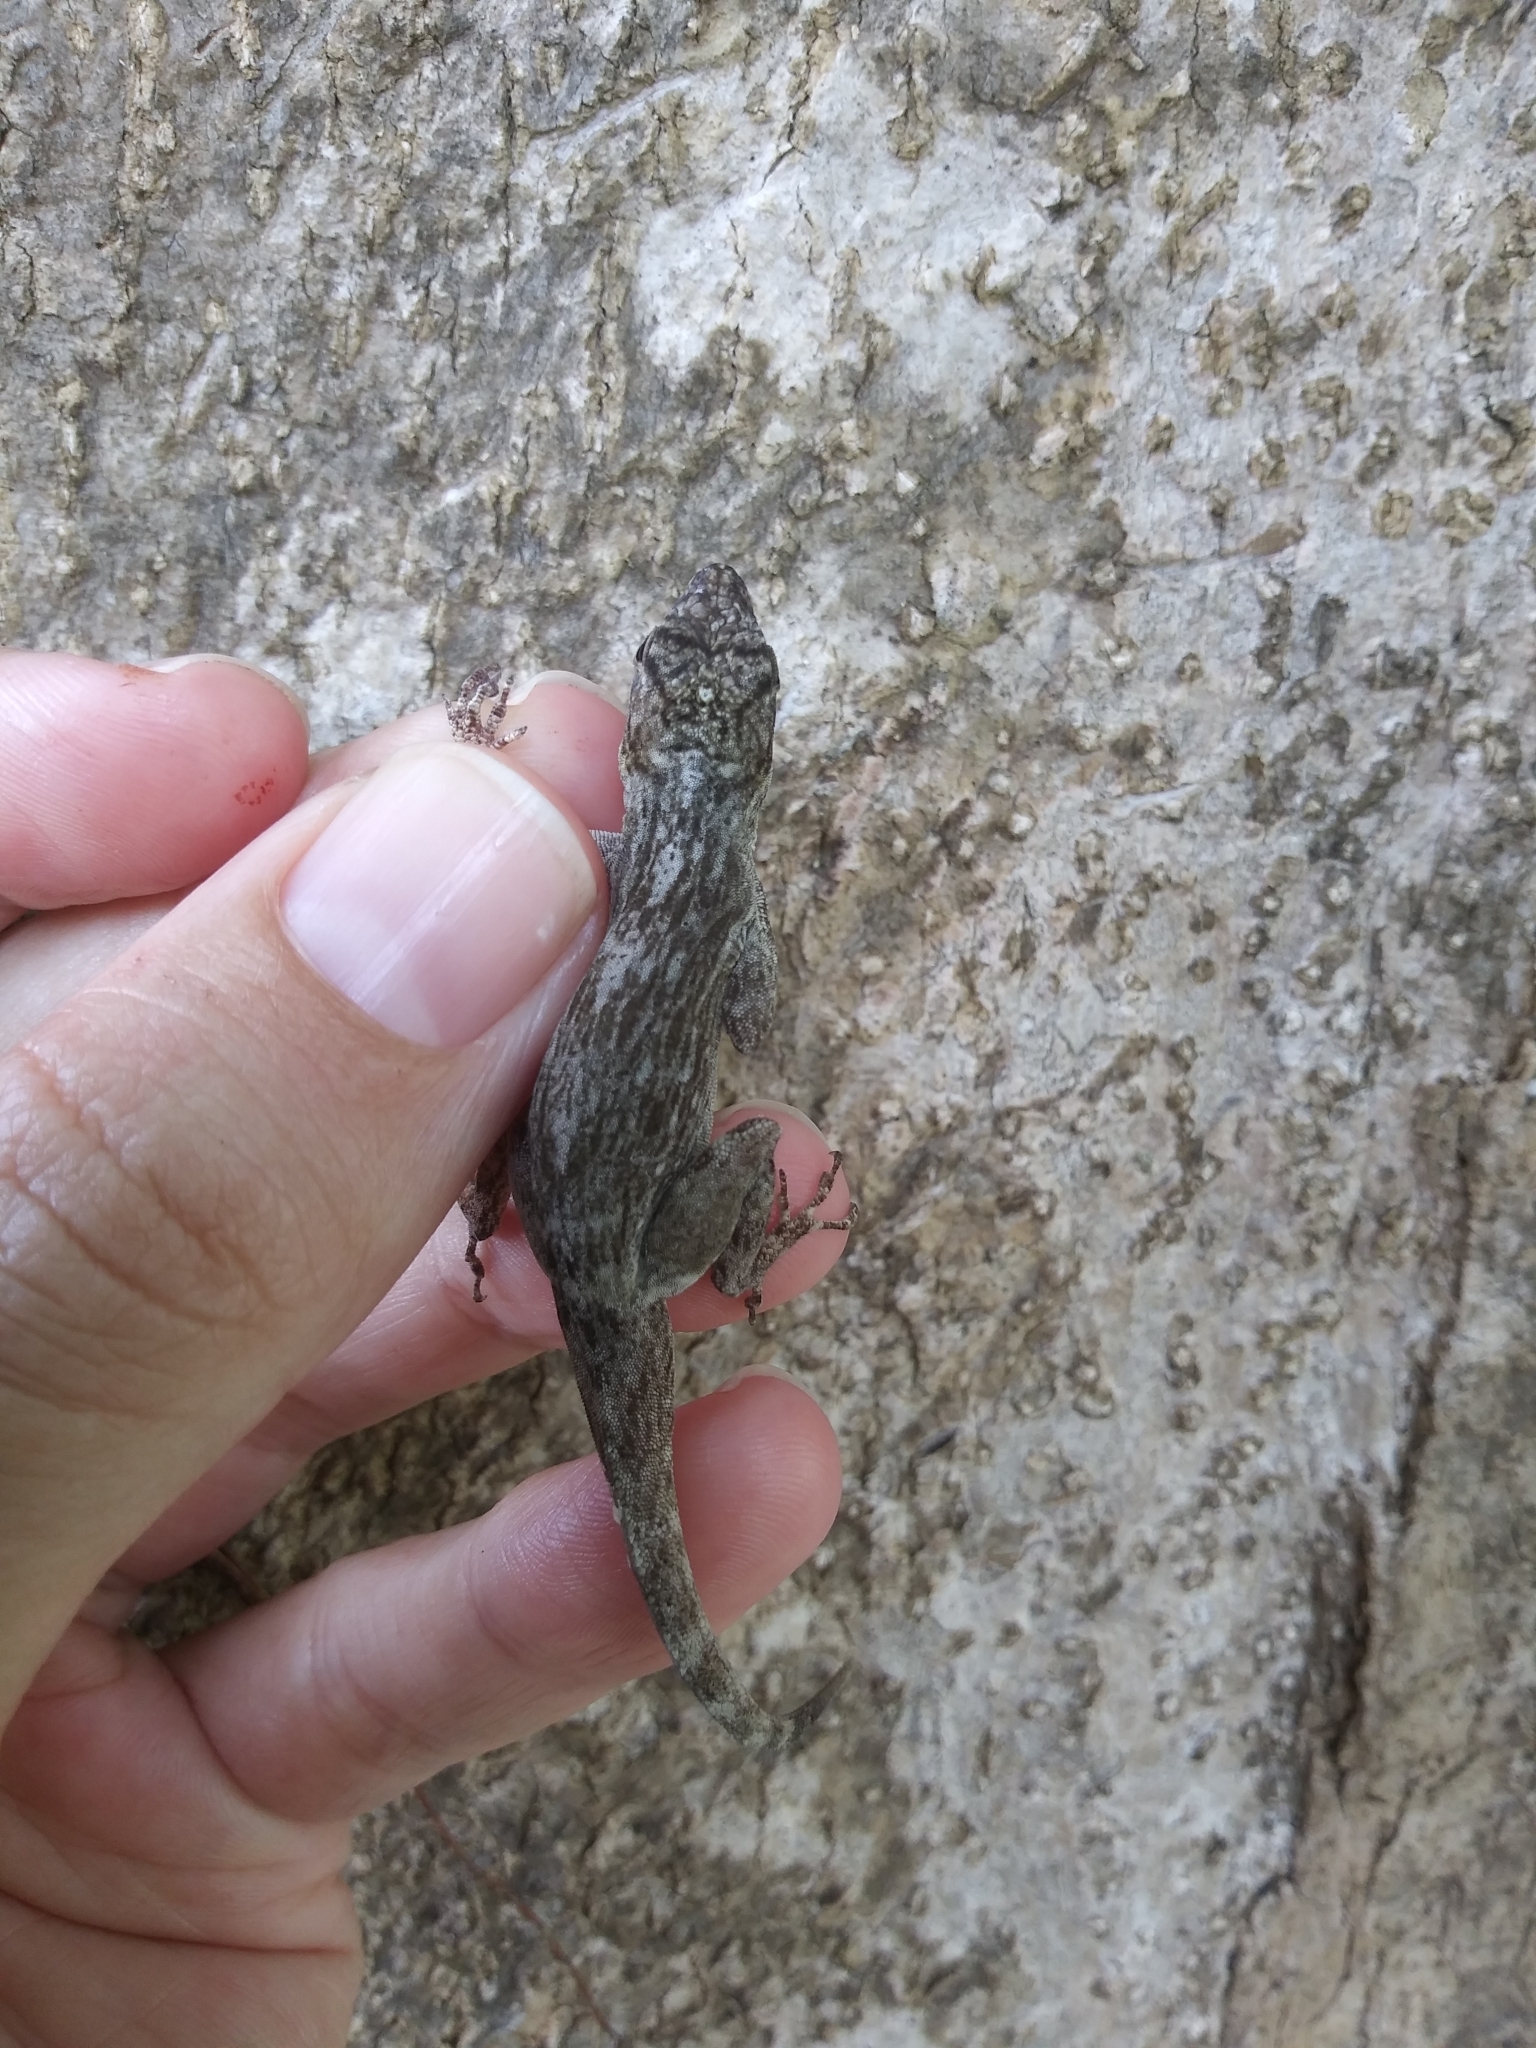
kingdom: Animalia
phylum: Chordata
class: Squamata
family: Dactyloidae
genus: Anolis
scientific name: Anolis distichus
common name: Bark anole
